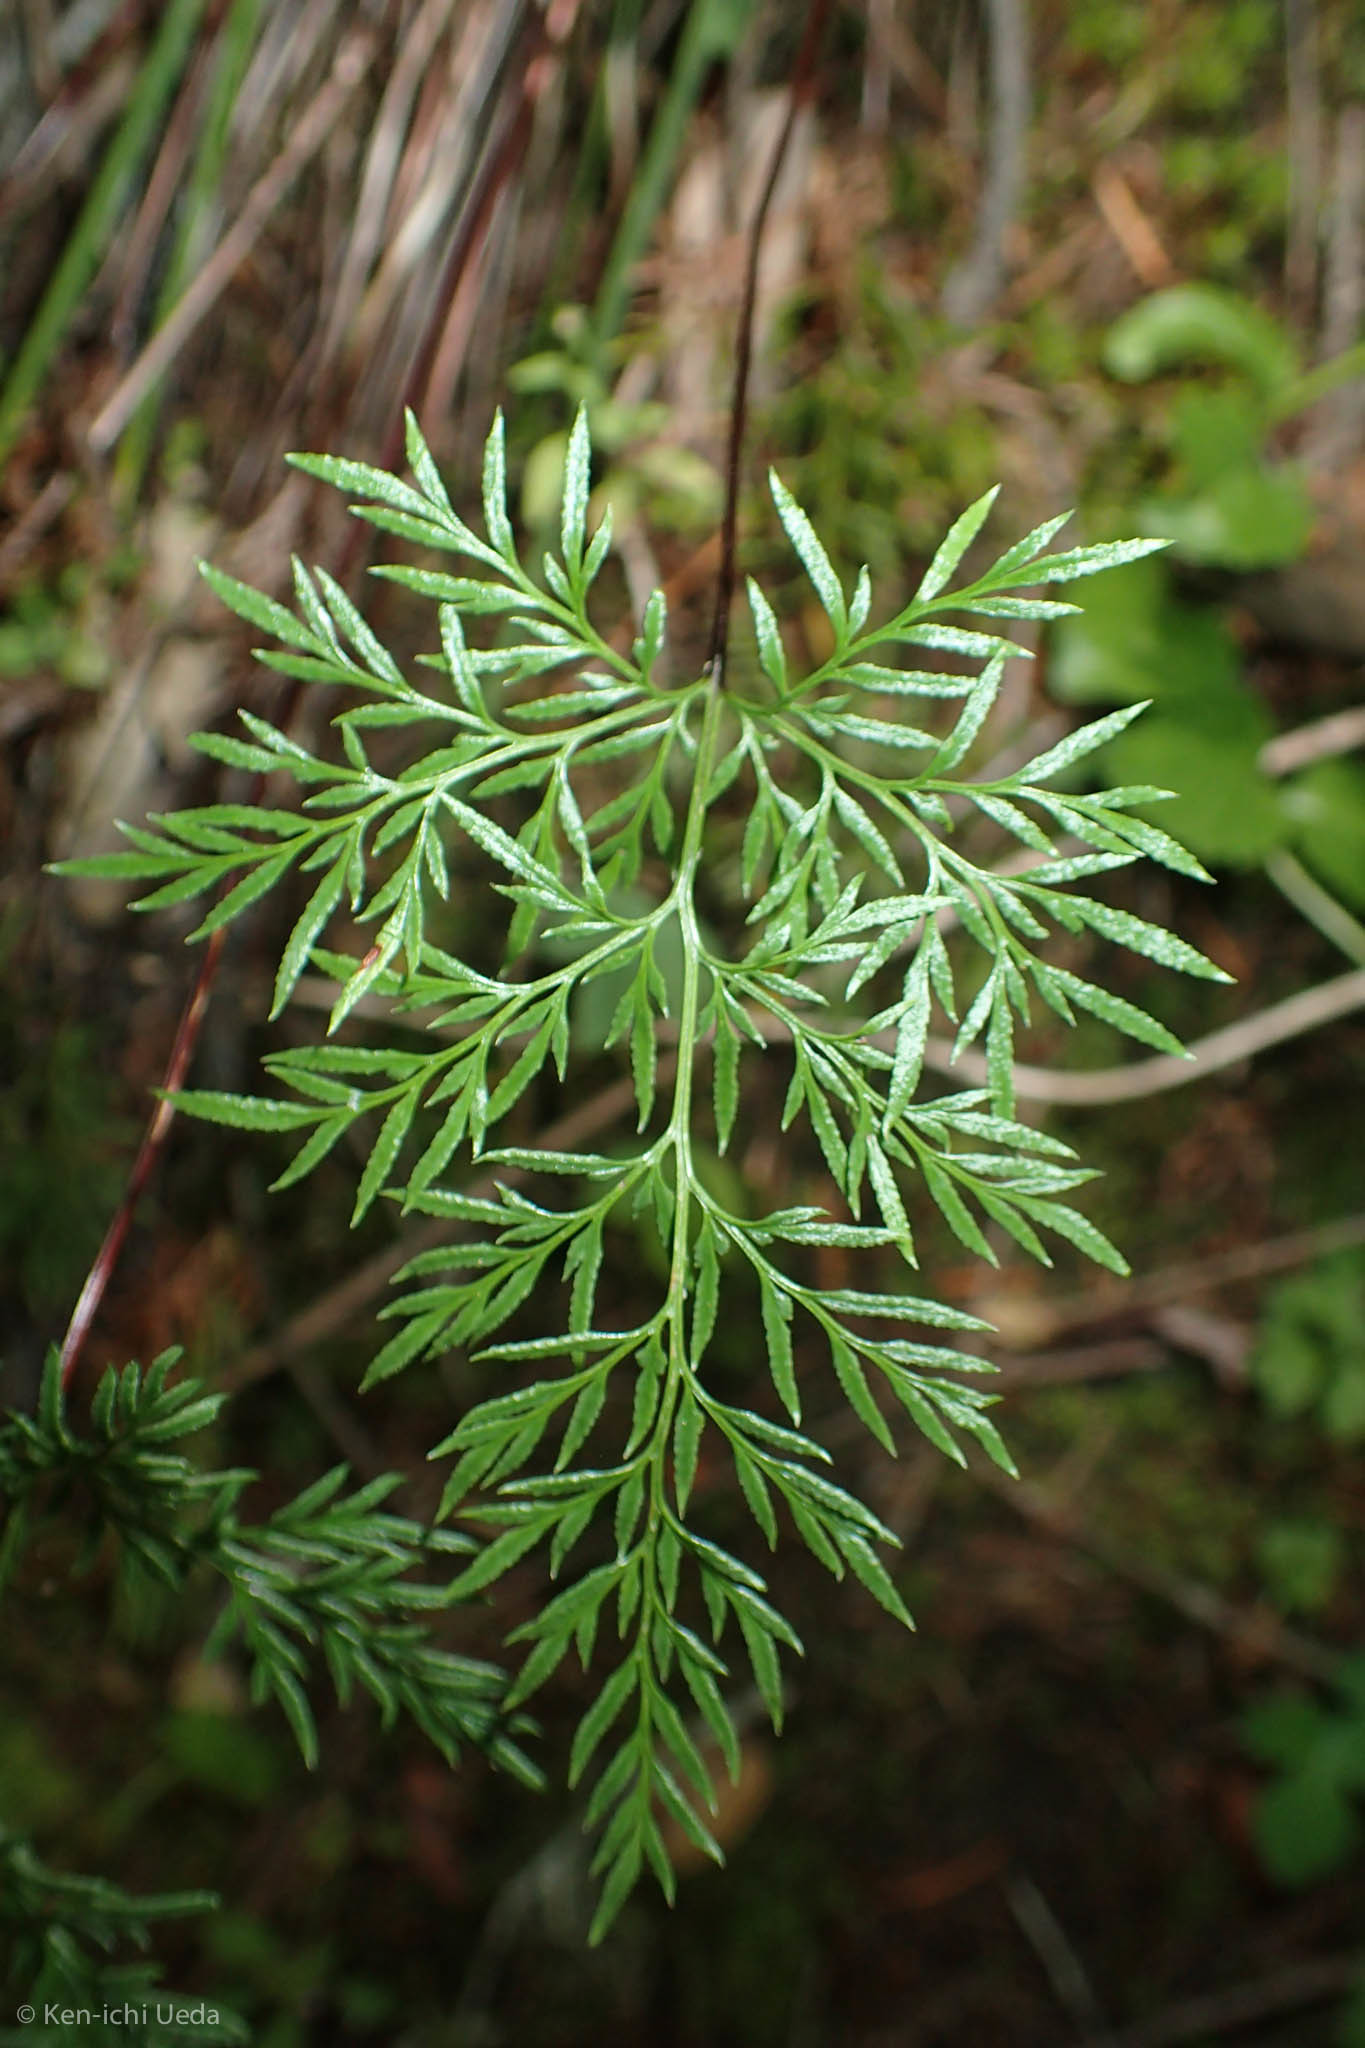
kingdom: Plantae
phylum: Tracheophyta
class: Polypodiopsida
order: Polypodiales
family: Pteridaceae
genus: Aspidotis
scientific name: Aspidotis densa
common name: Indian's dream
